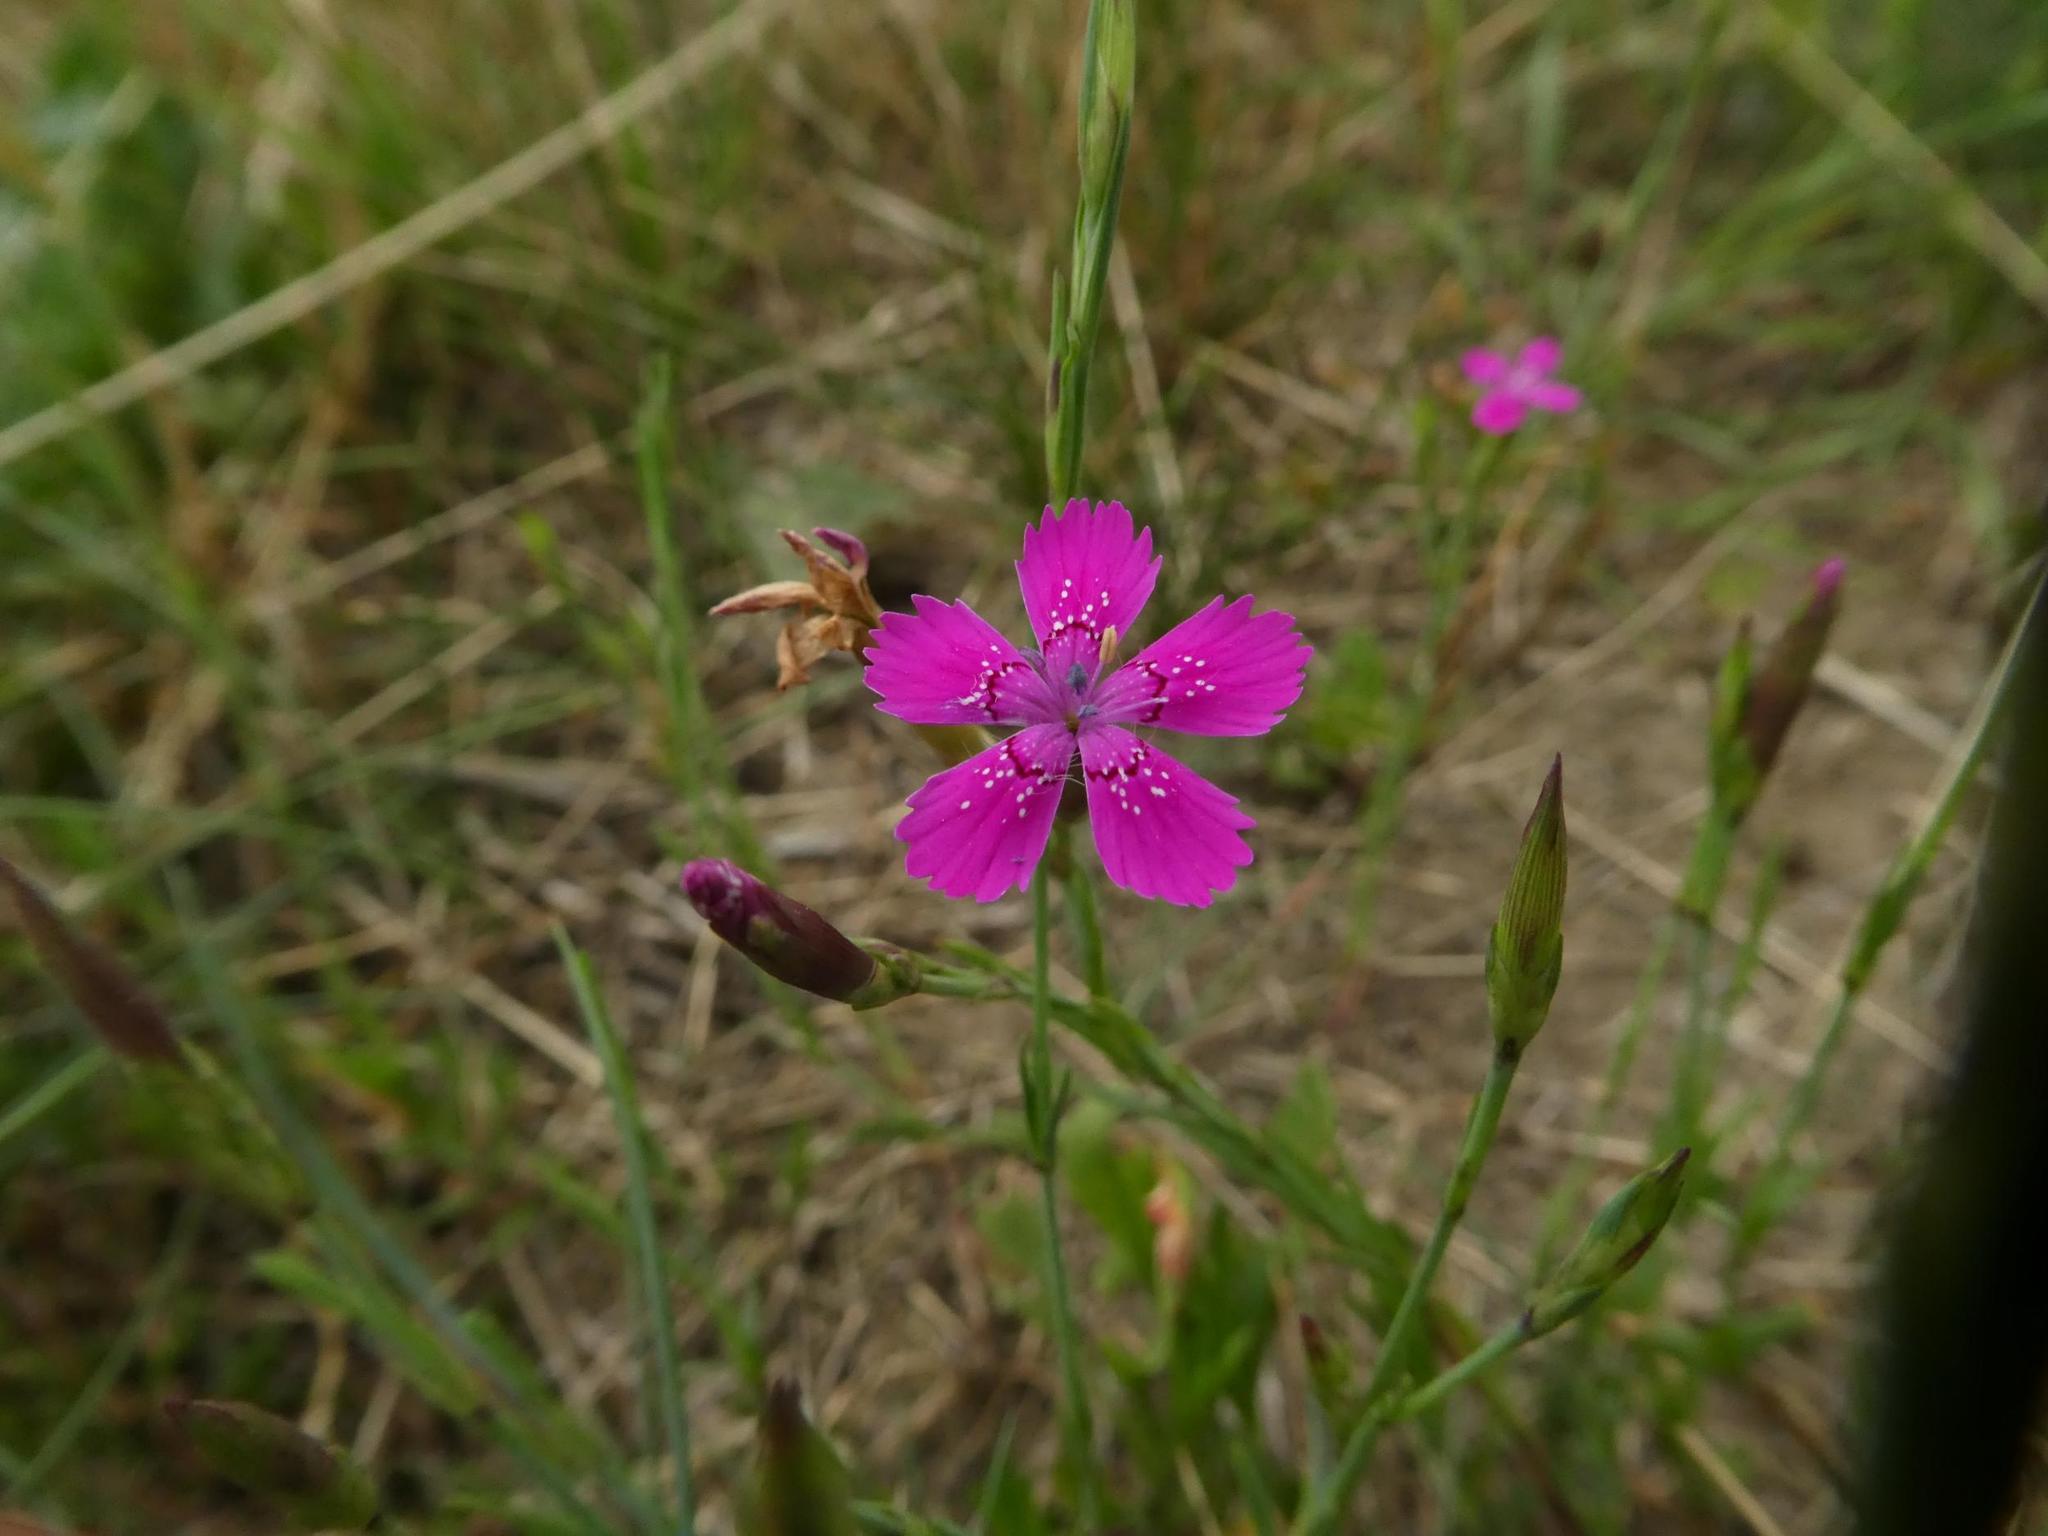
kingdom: Plantae
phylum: Tracheophyta
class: Magnoliopsida
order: Caryophyllales
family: Caryophyllaceae
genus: Dianthus
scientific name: Dianthus deltoides
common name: Maiden pink
